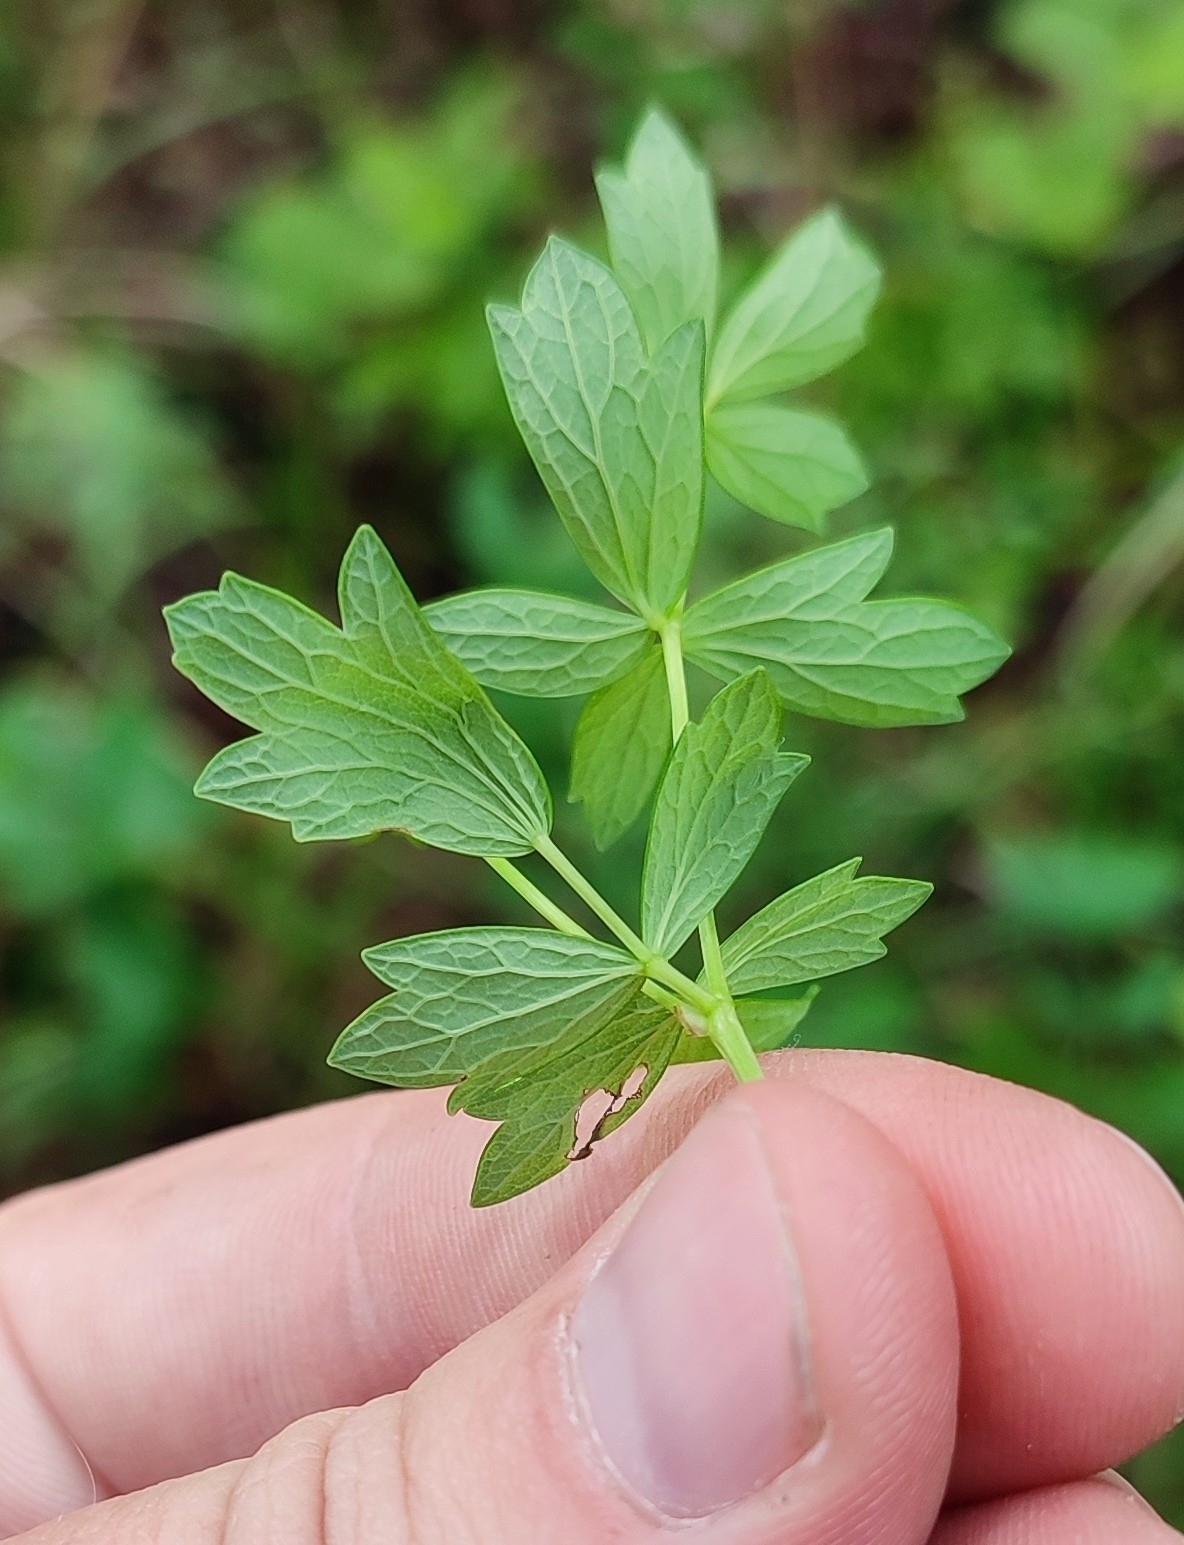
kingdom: Plantae
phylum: Tracheophyta
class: Magnoliopsida
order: Ranunculales
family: Ranunculaceae
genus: Thalictrum
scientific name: Thalictrum simplex
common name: Small meadow-rue
